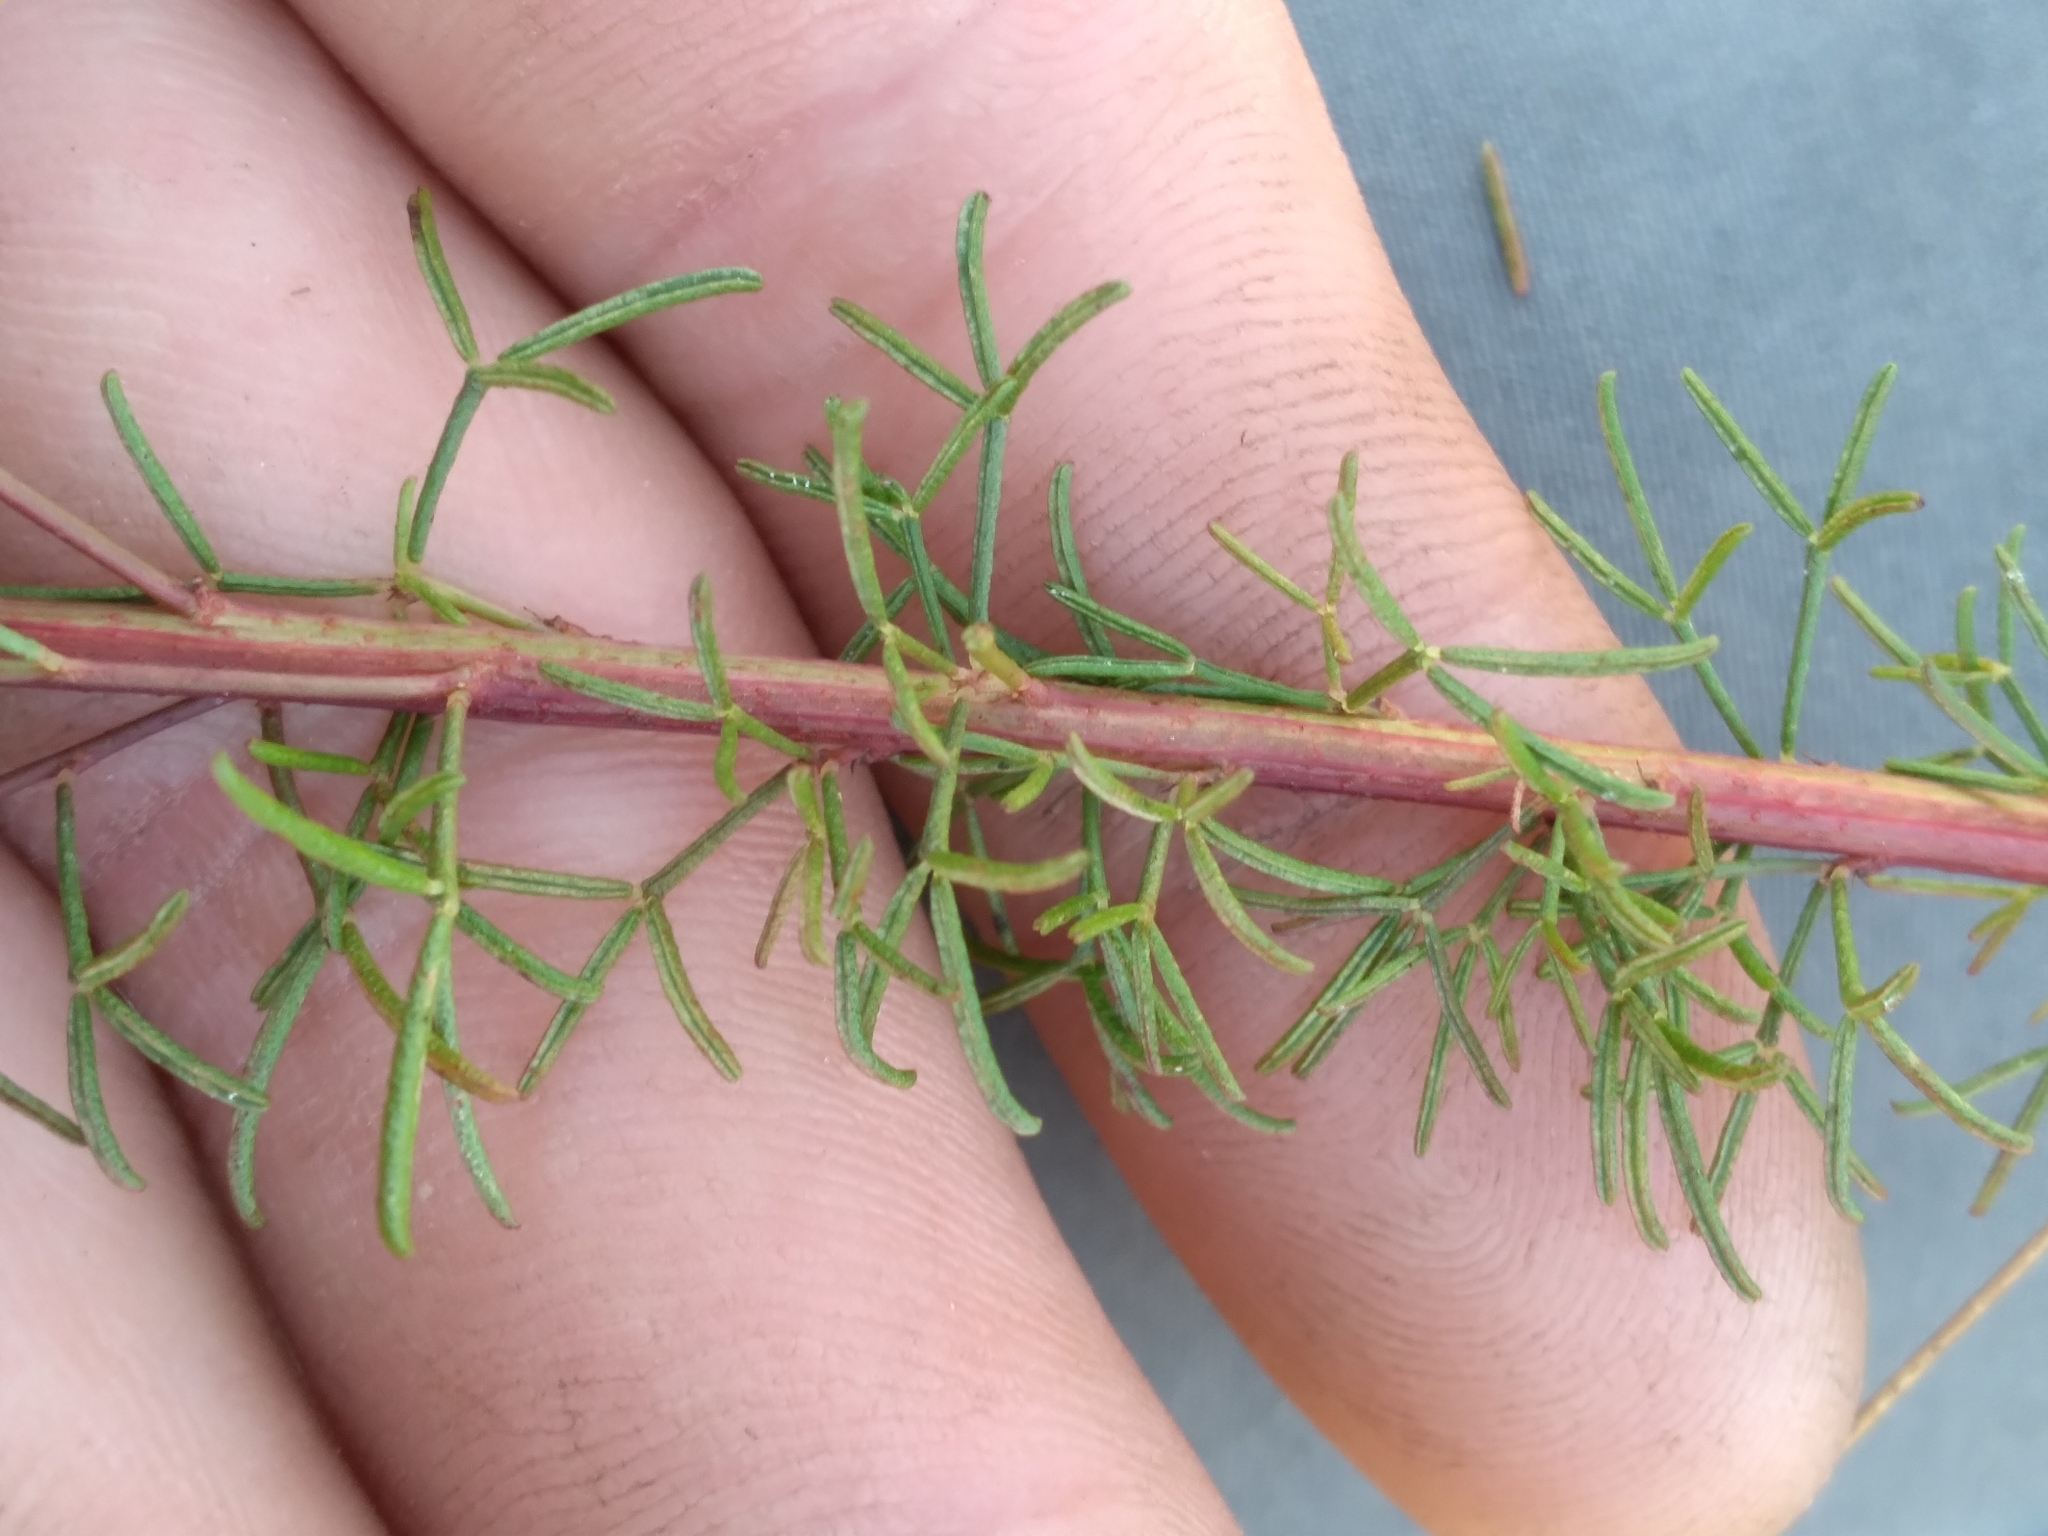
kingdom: Plantae
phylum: Tracheophyta
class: Magnoliopsida
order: Fabales
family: Fabaceae
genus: Dalea
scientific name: Dalea pinnata
